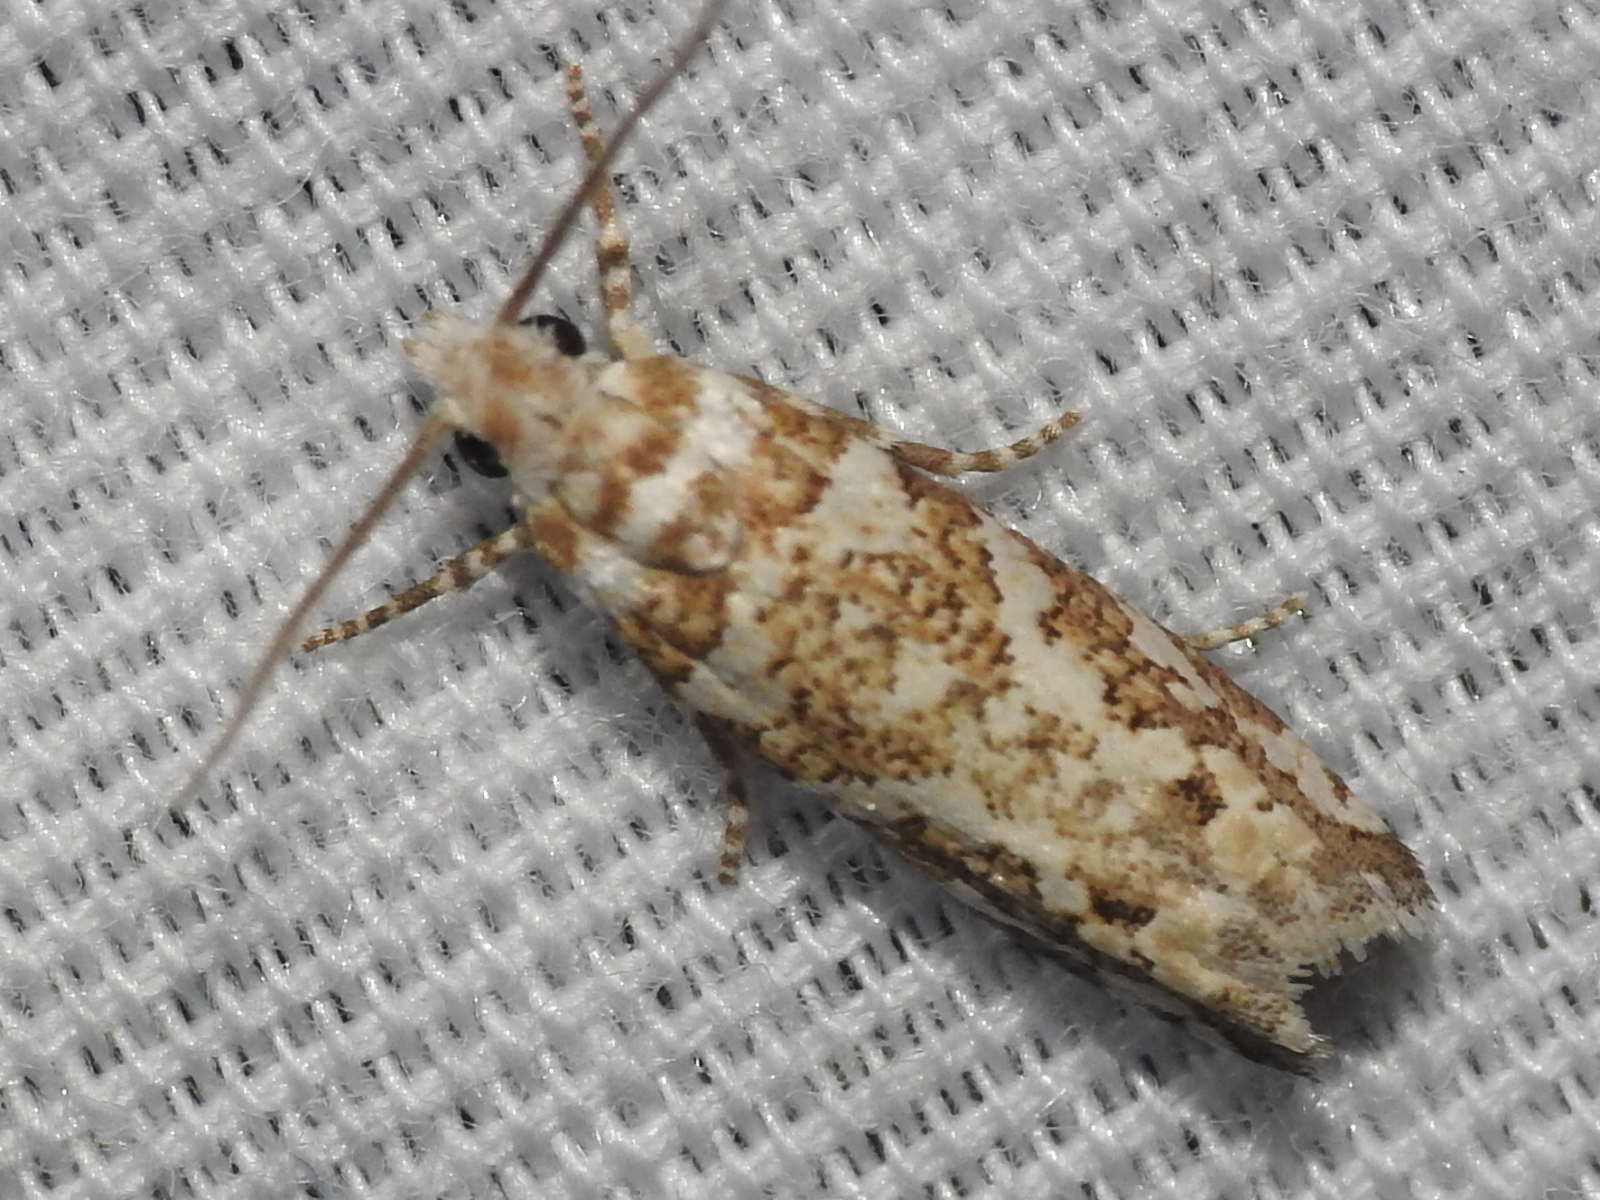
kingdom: Animalia
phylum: Arthropoda
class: Insecta
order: Lepidoptera
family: Tortricidae
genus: Pelochrista
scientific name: Pelochrista fritillana
